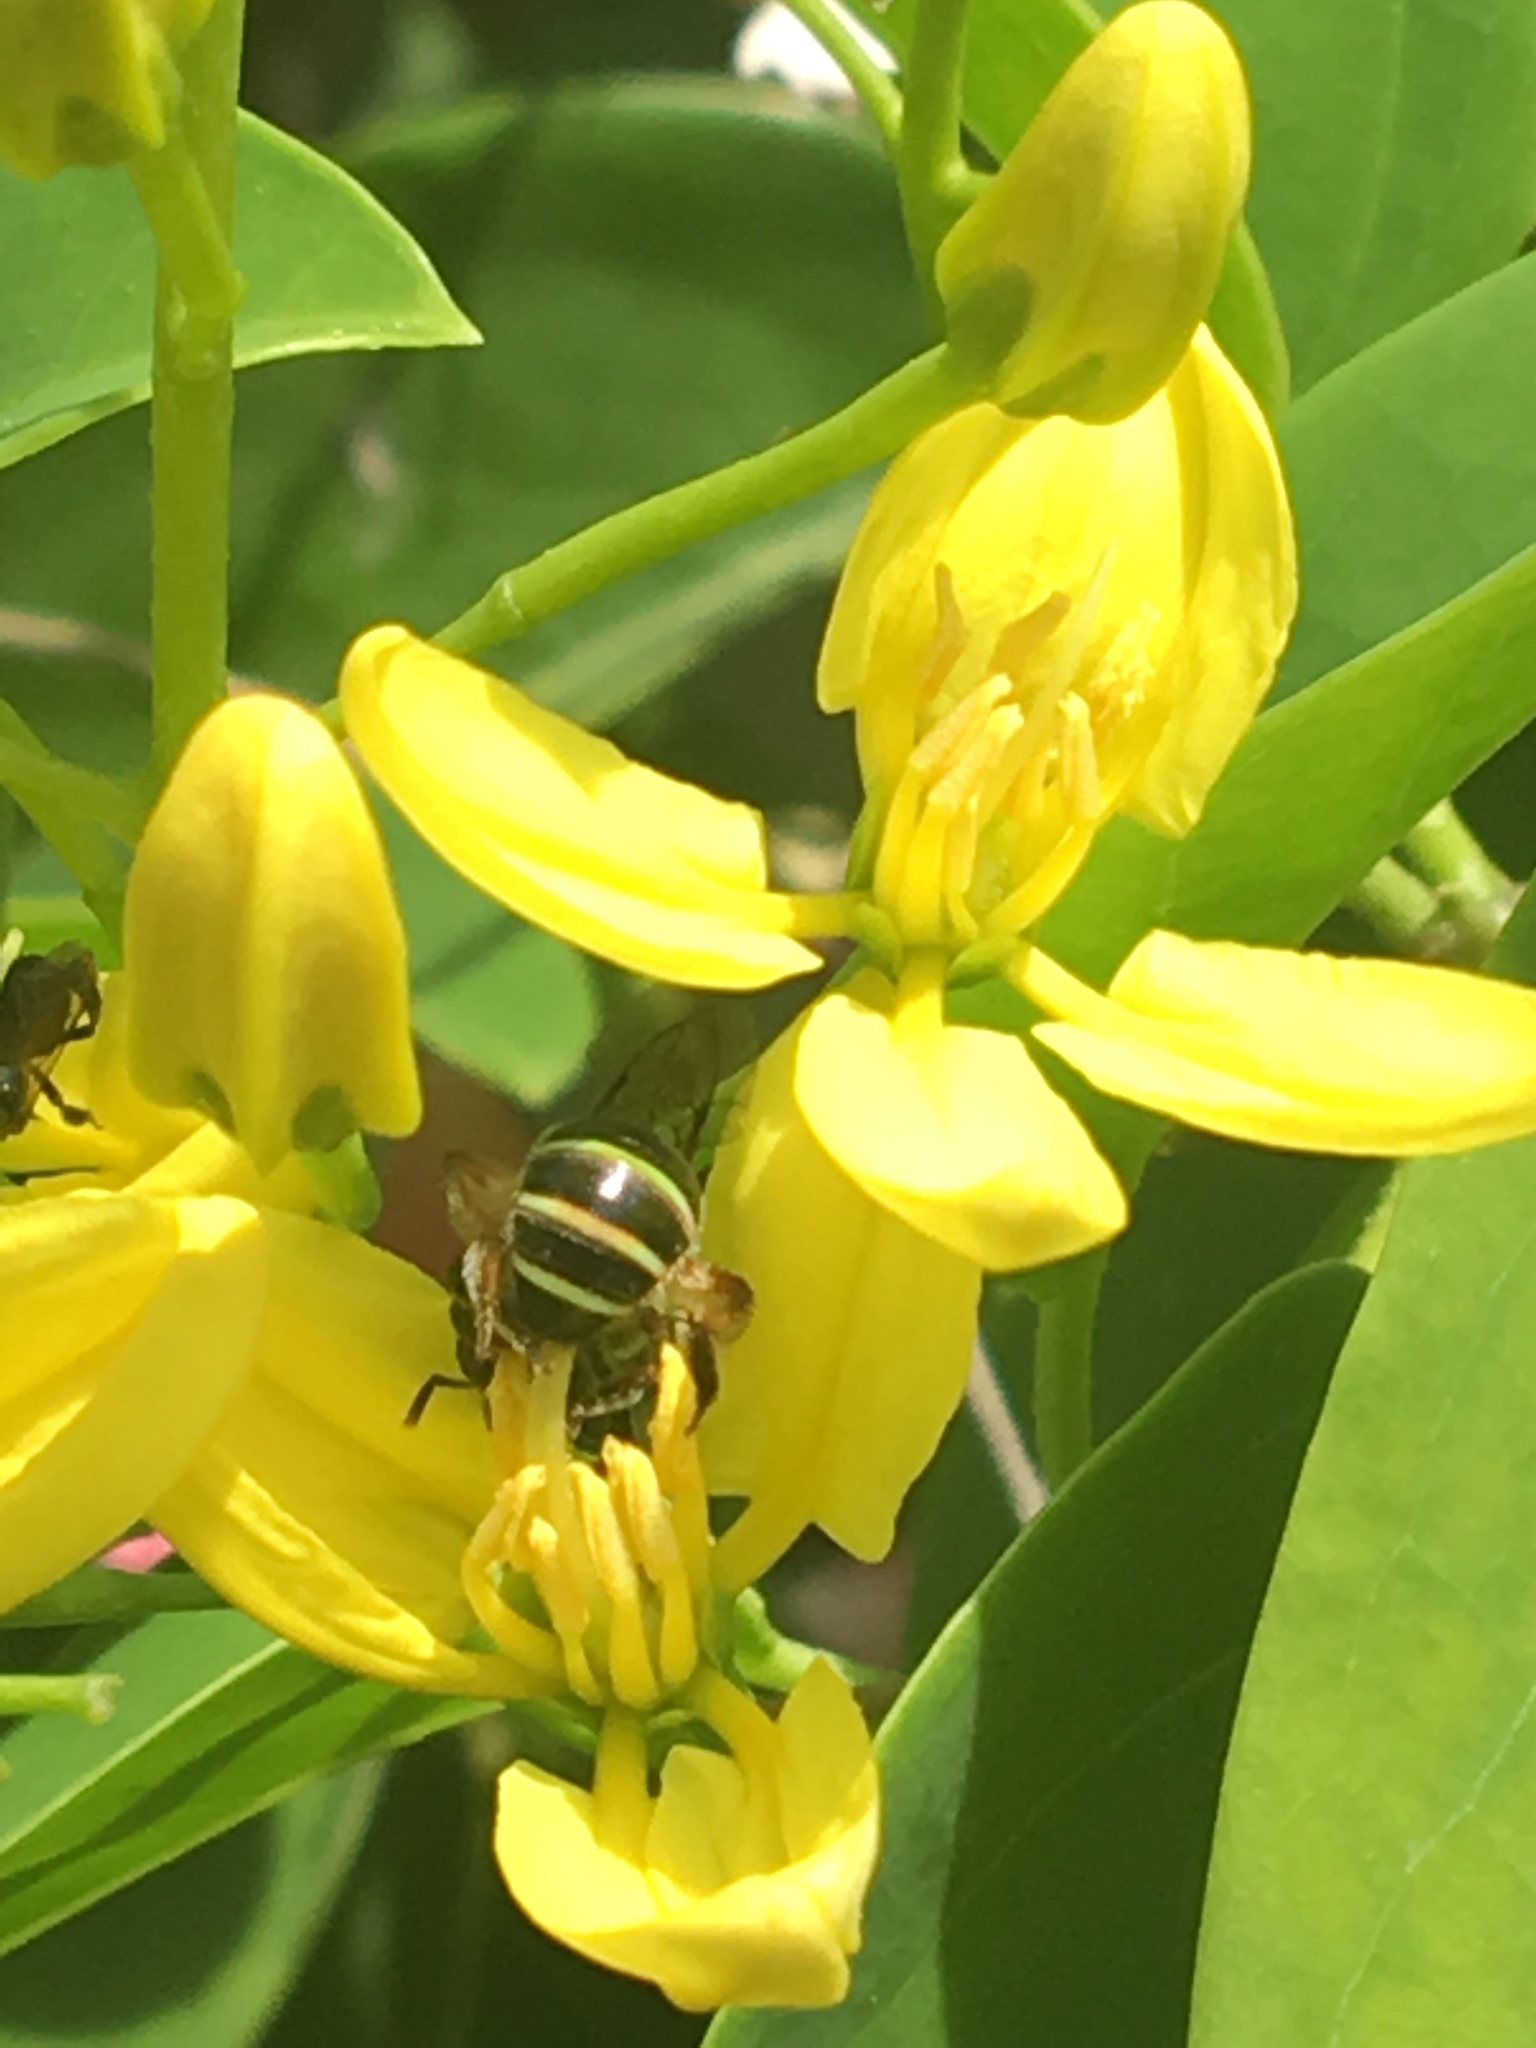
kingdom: Animalia
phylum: Arthropoda
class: Insecta
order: Hymenoptera
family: Halictidae
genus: Nomia
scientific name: Nomia carinata
